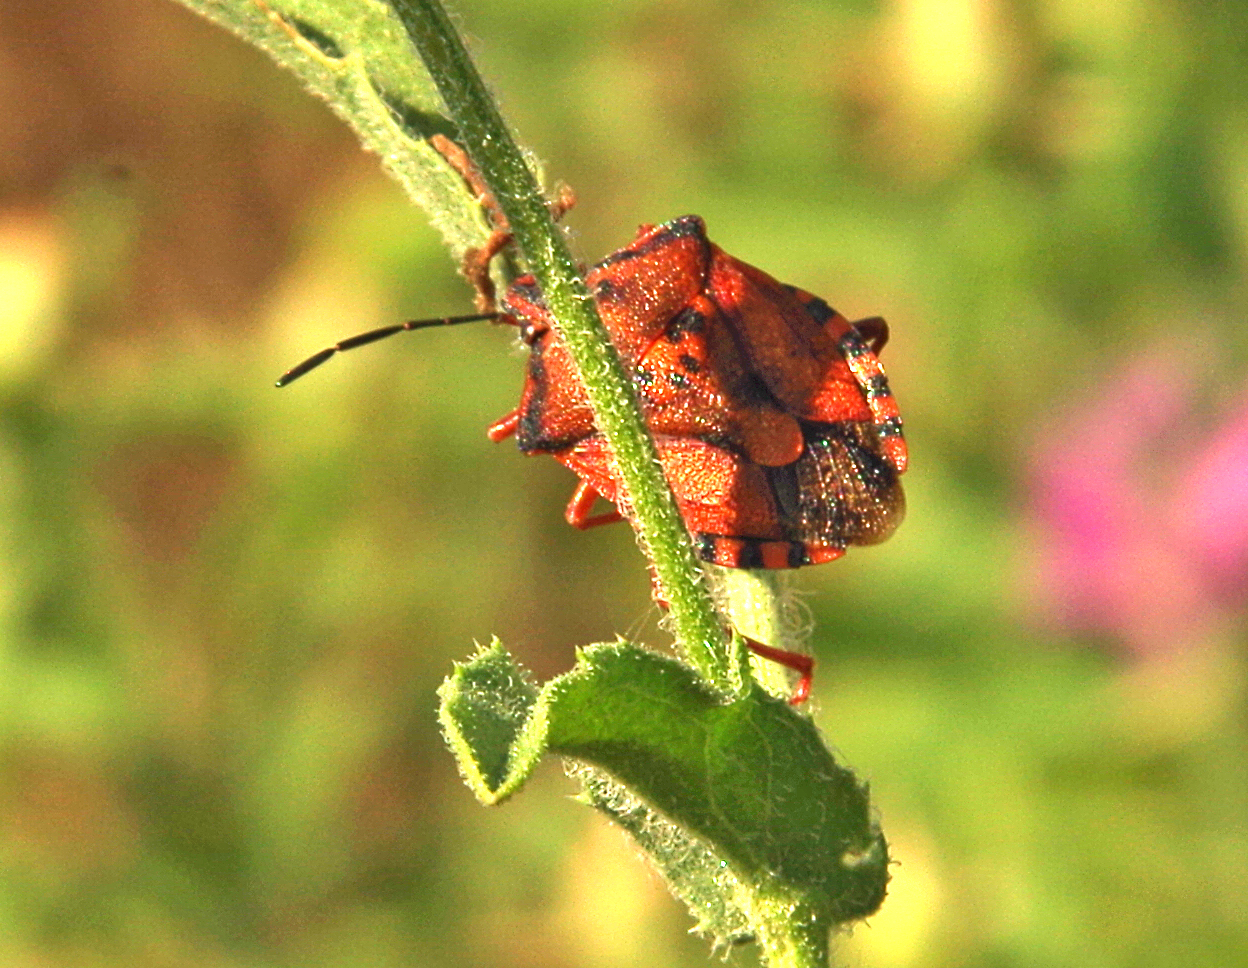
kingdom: Animalia
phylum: Arthropoda
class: Insecta
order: Hemiptera
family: Pentatomidae
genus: Carpocoris
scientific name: Carpocoris mediterraneus
